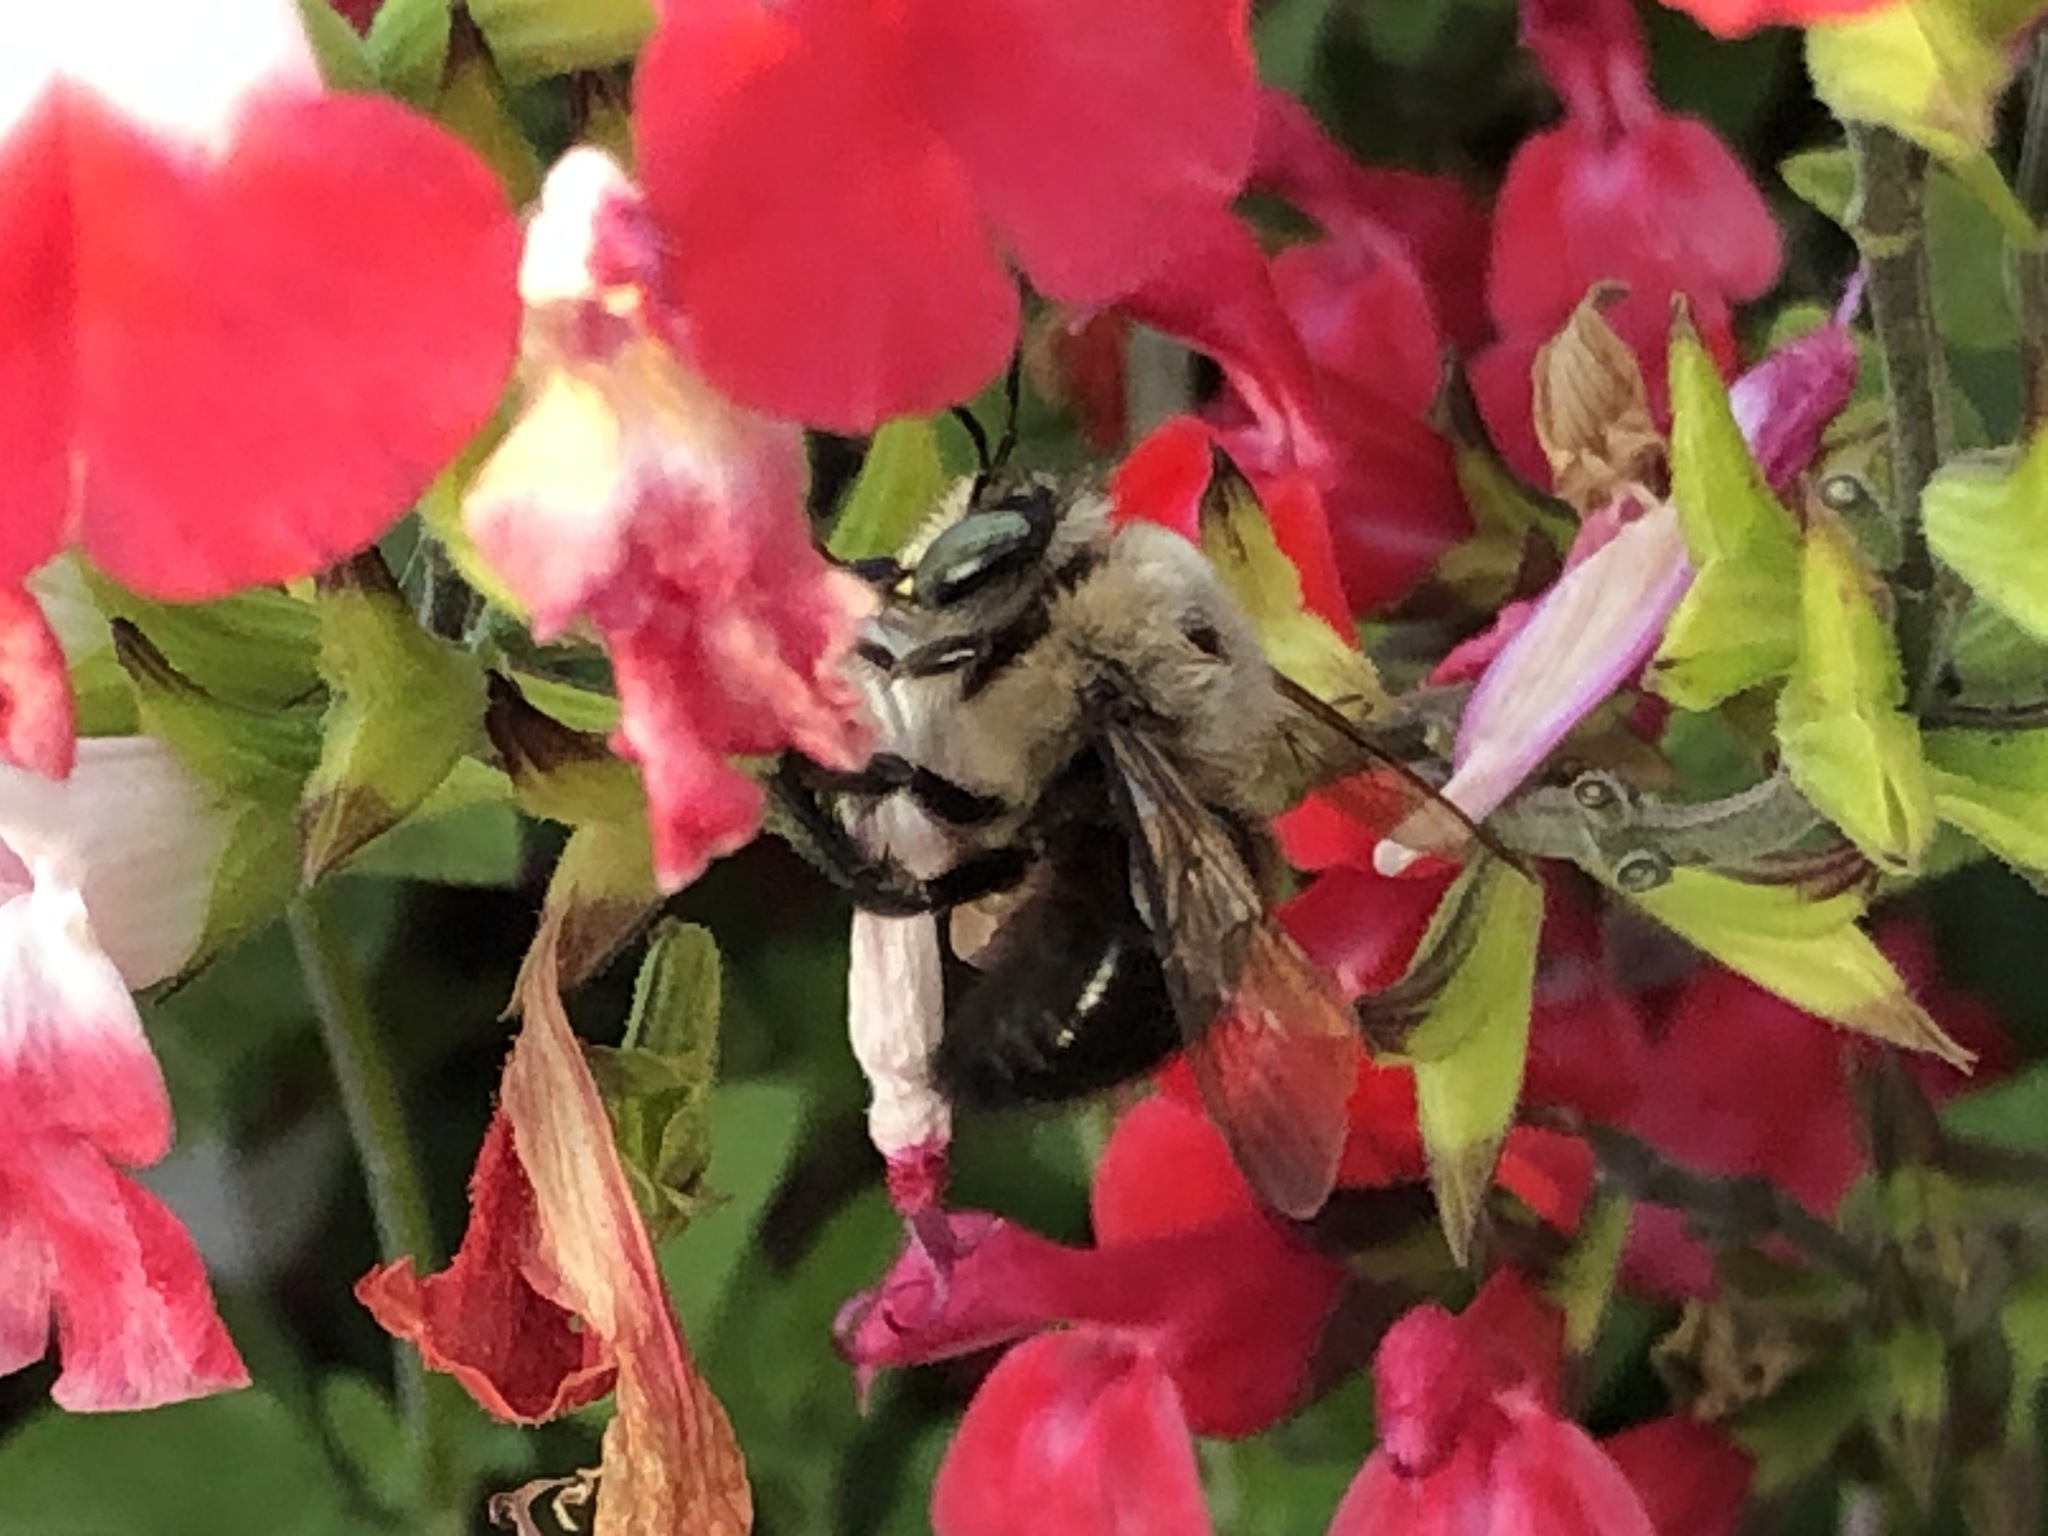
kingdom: Animalia
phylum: Arthropoda
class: Insecta
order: Hymenoptera
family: Apidae
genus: Xylocopa
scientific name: Xylocopa tabaniformis
